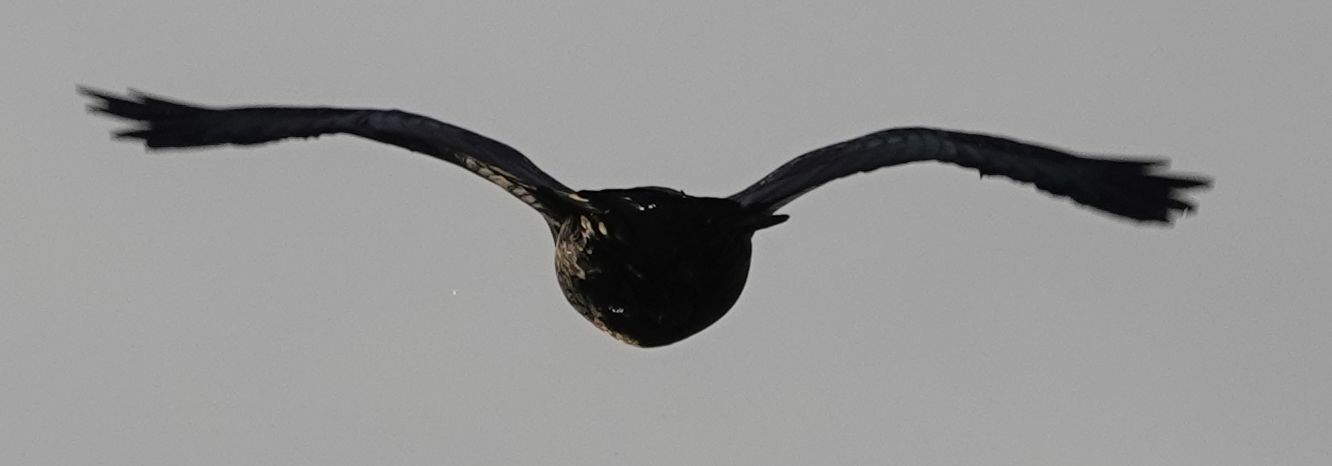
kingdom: Animalia
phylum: Chordata
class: Aves
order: Passeriformes
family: Corvidae
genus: Corvus
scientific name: Corvus corax
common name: Common raven
